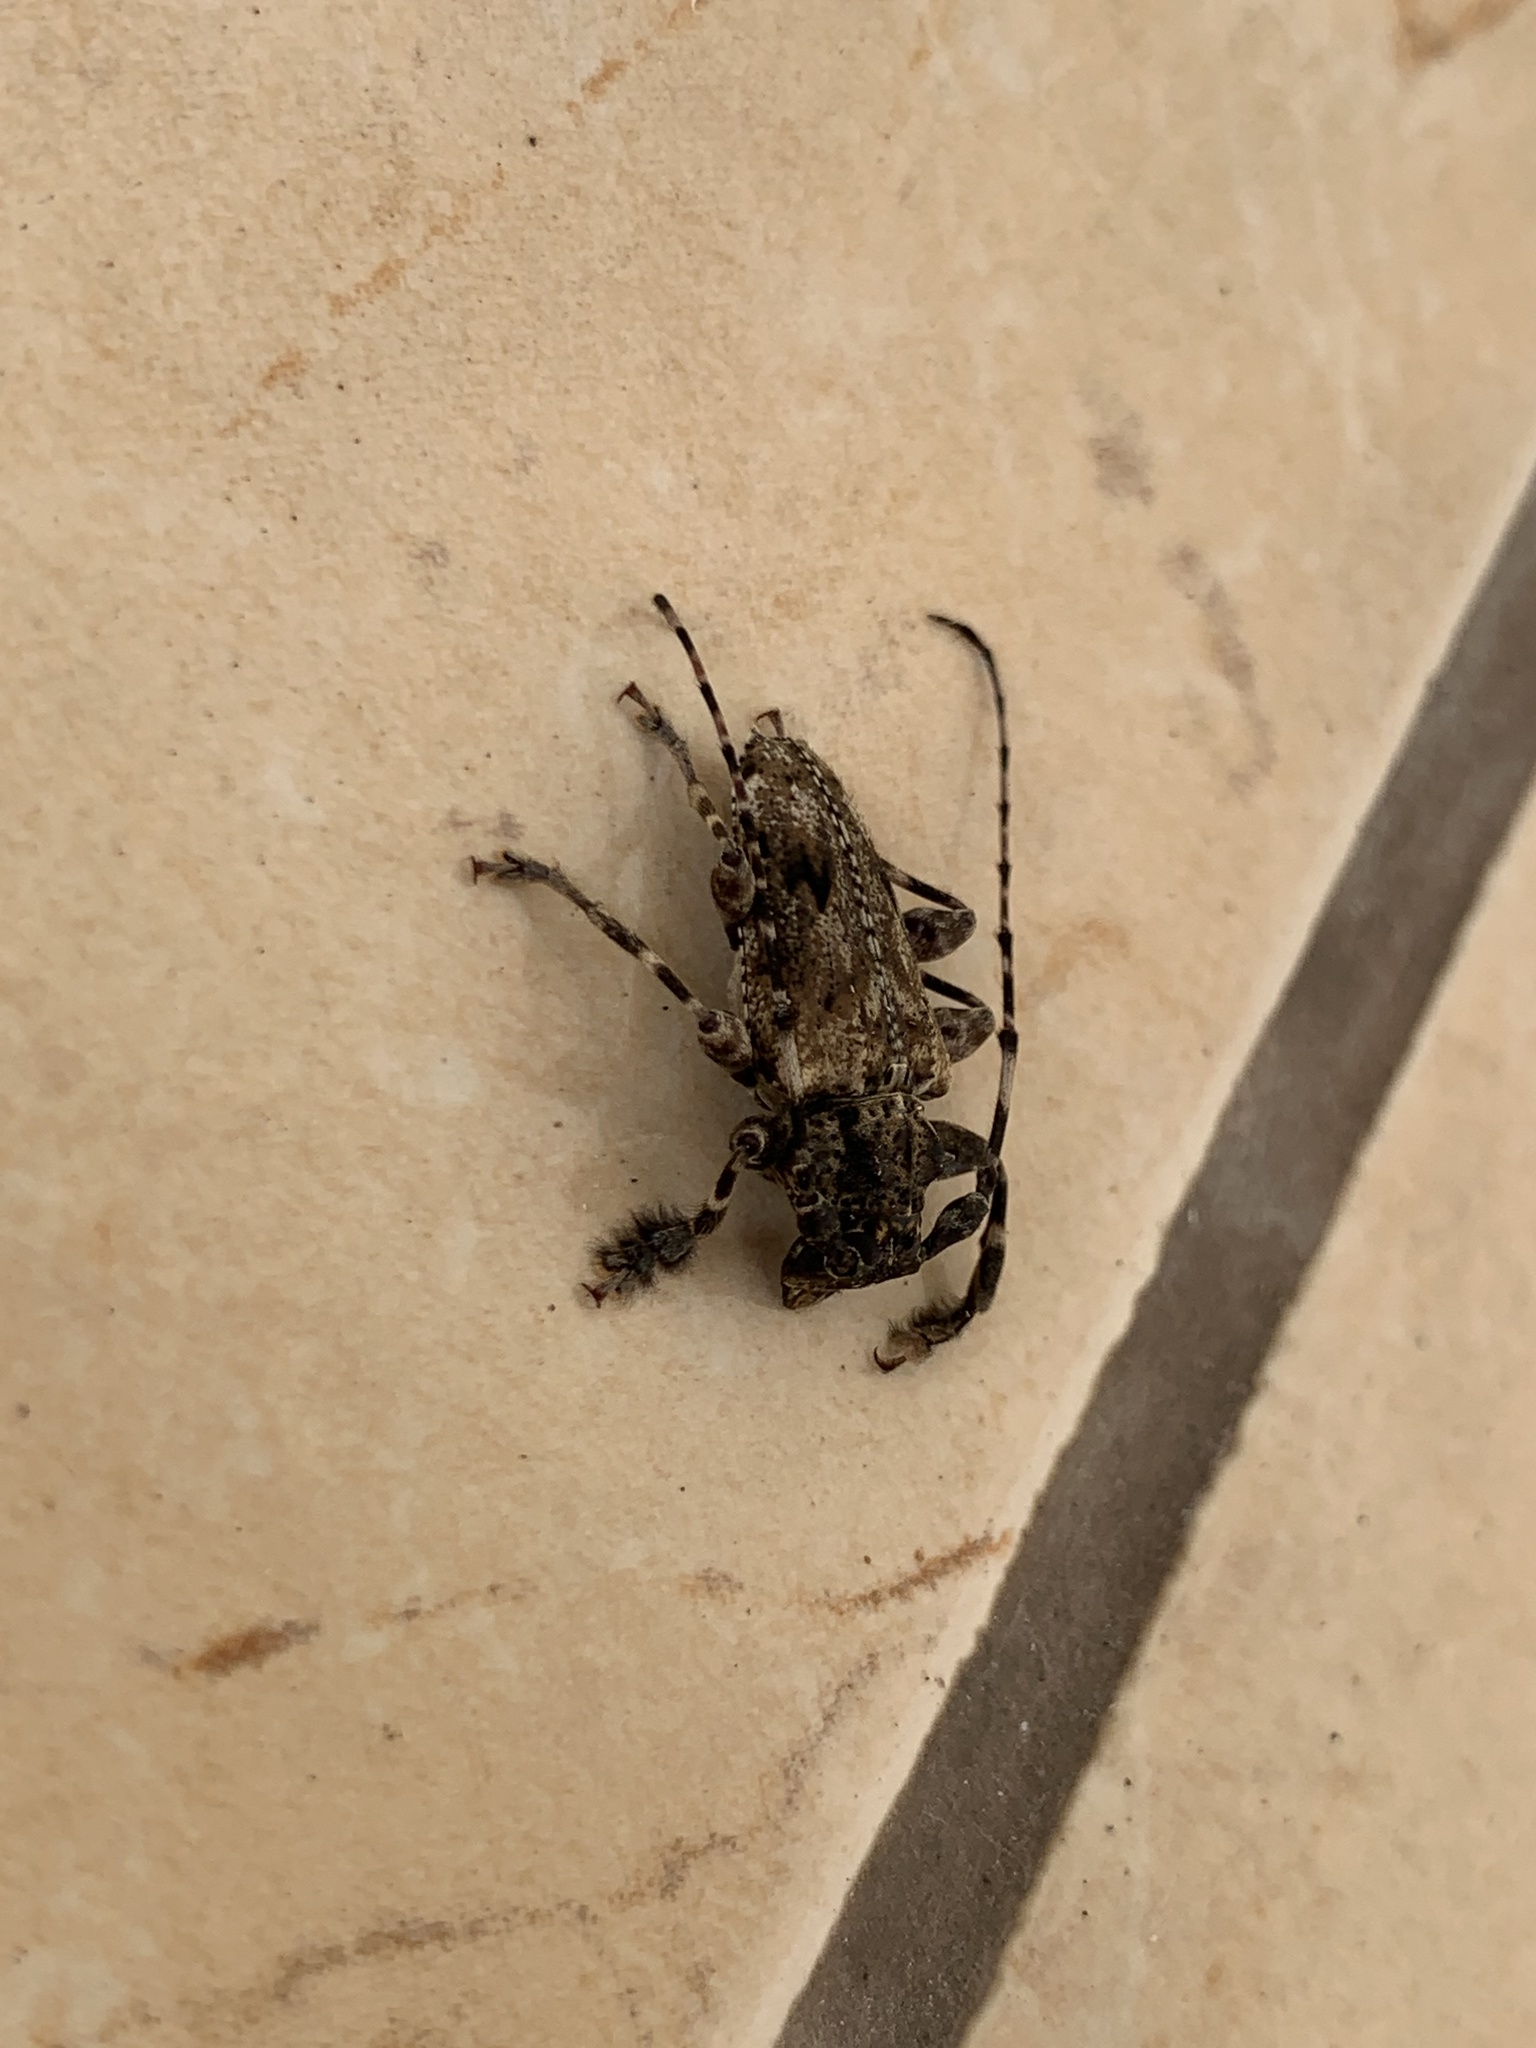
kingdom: Animalia
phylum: Arthropoda
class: Insecta
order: Coleoptera
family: Cerambycidae
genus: Aegomorphus
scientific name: Aegomorphus
